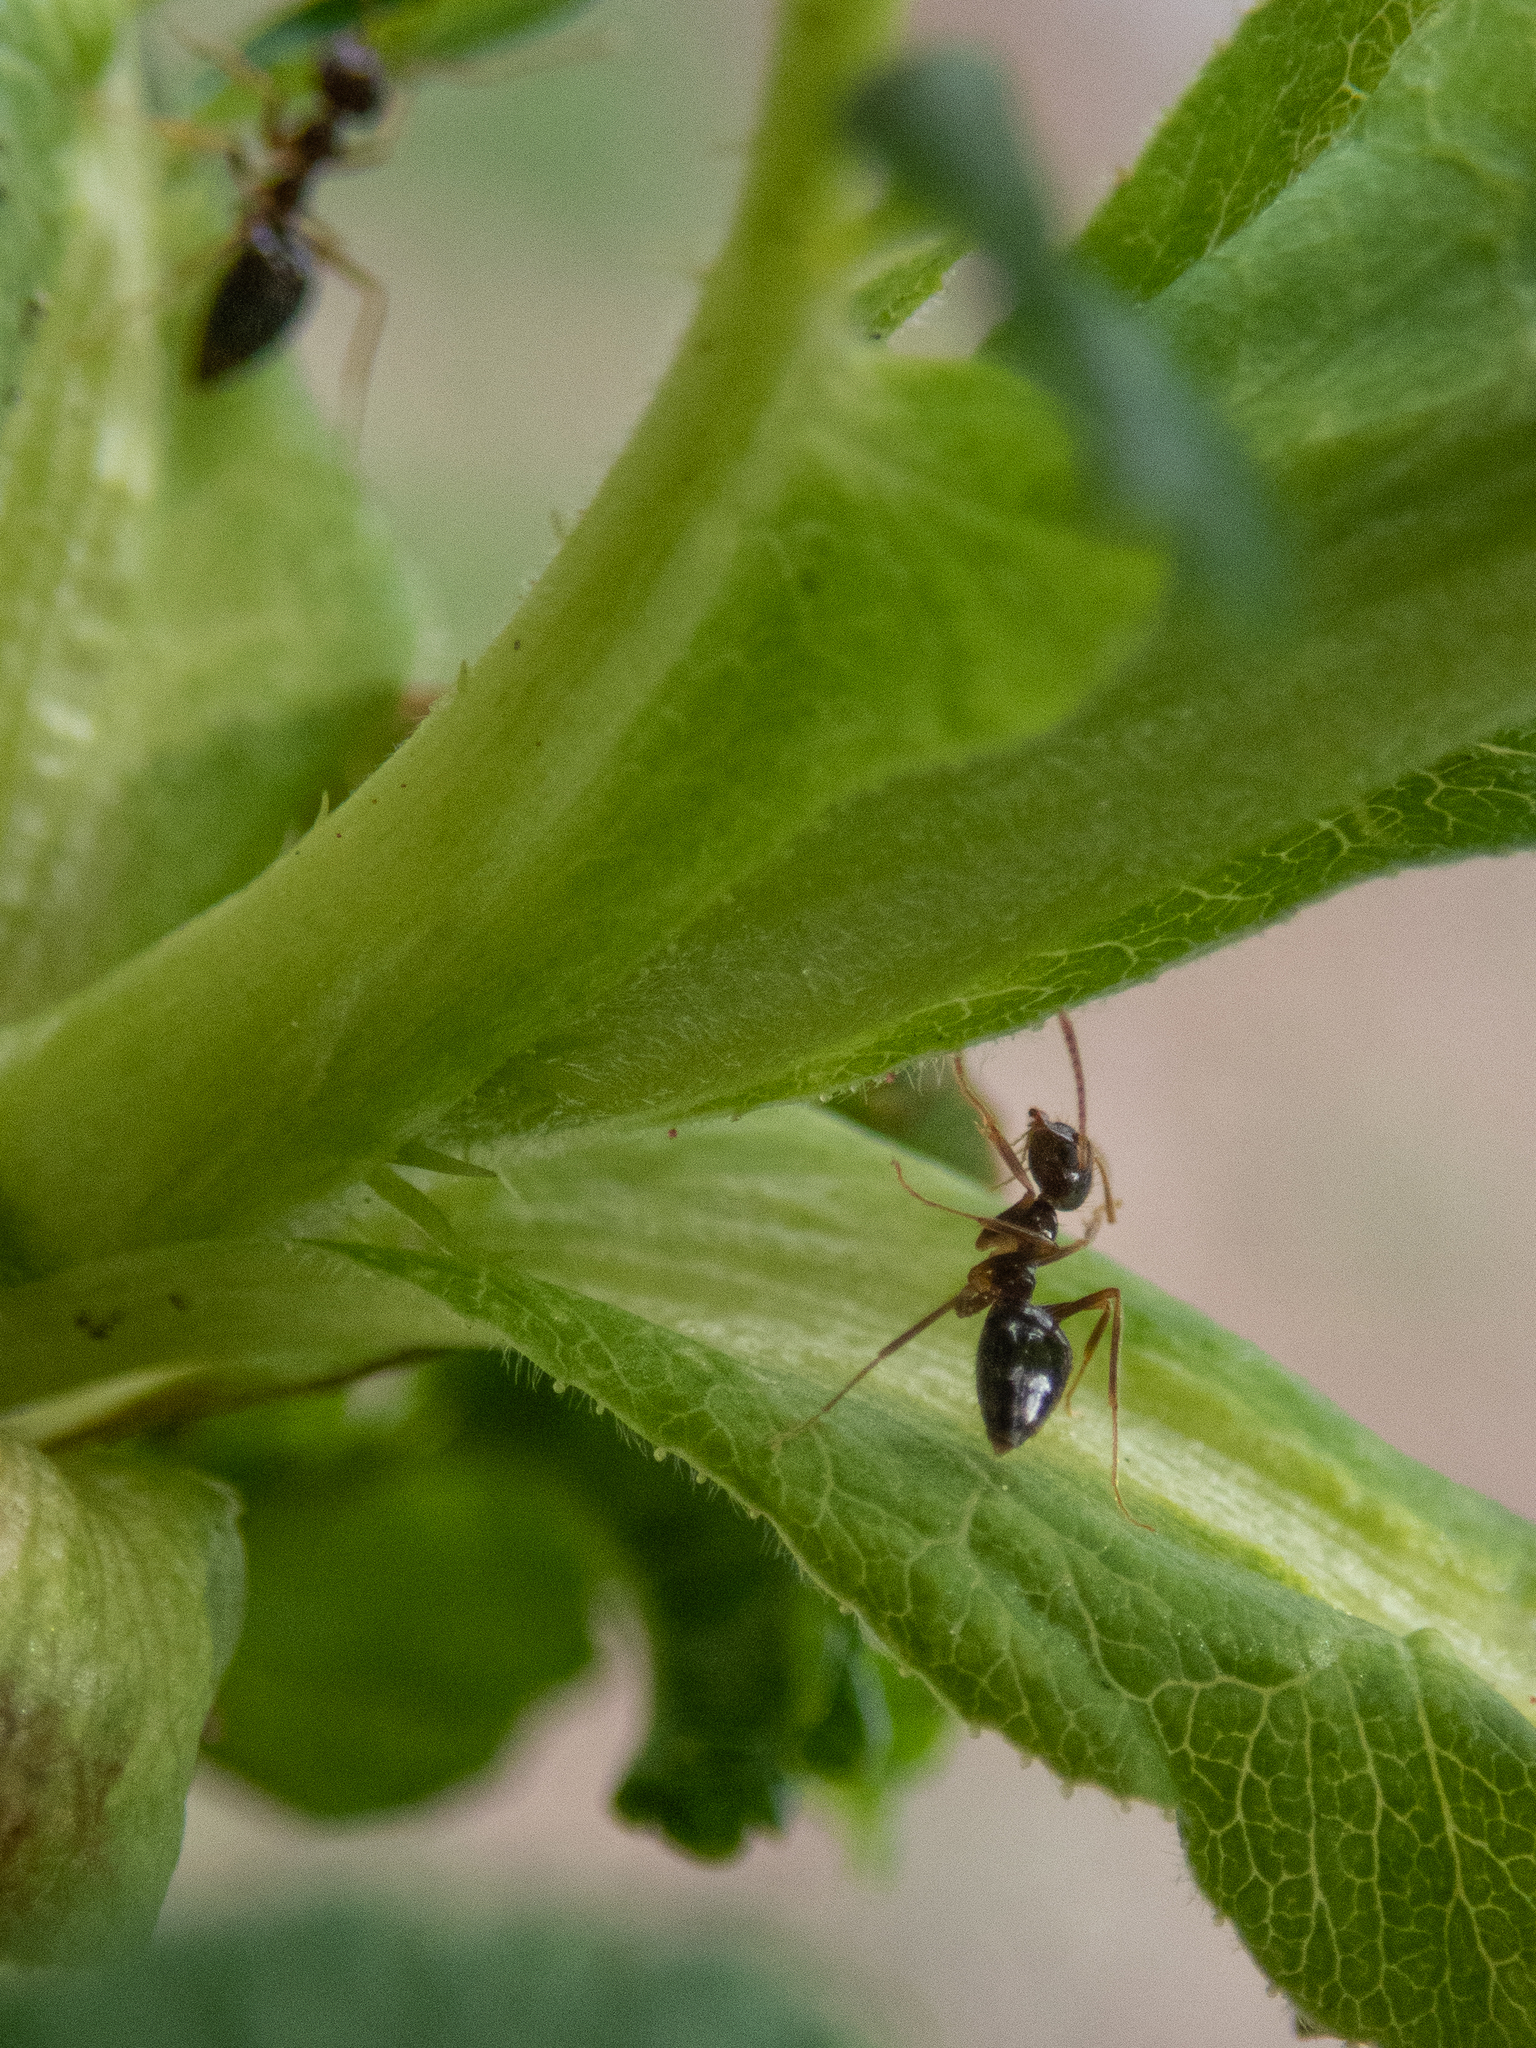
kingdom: Animalia
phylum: Arthropoda
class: Insecta
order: Hymenoptera
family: Formicidae
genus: Prenolepis
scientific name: Prenolepis imparis
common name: Small honey ant
